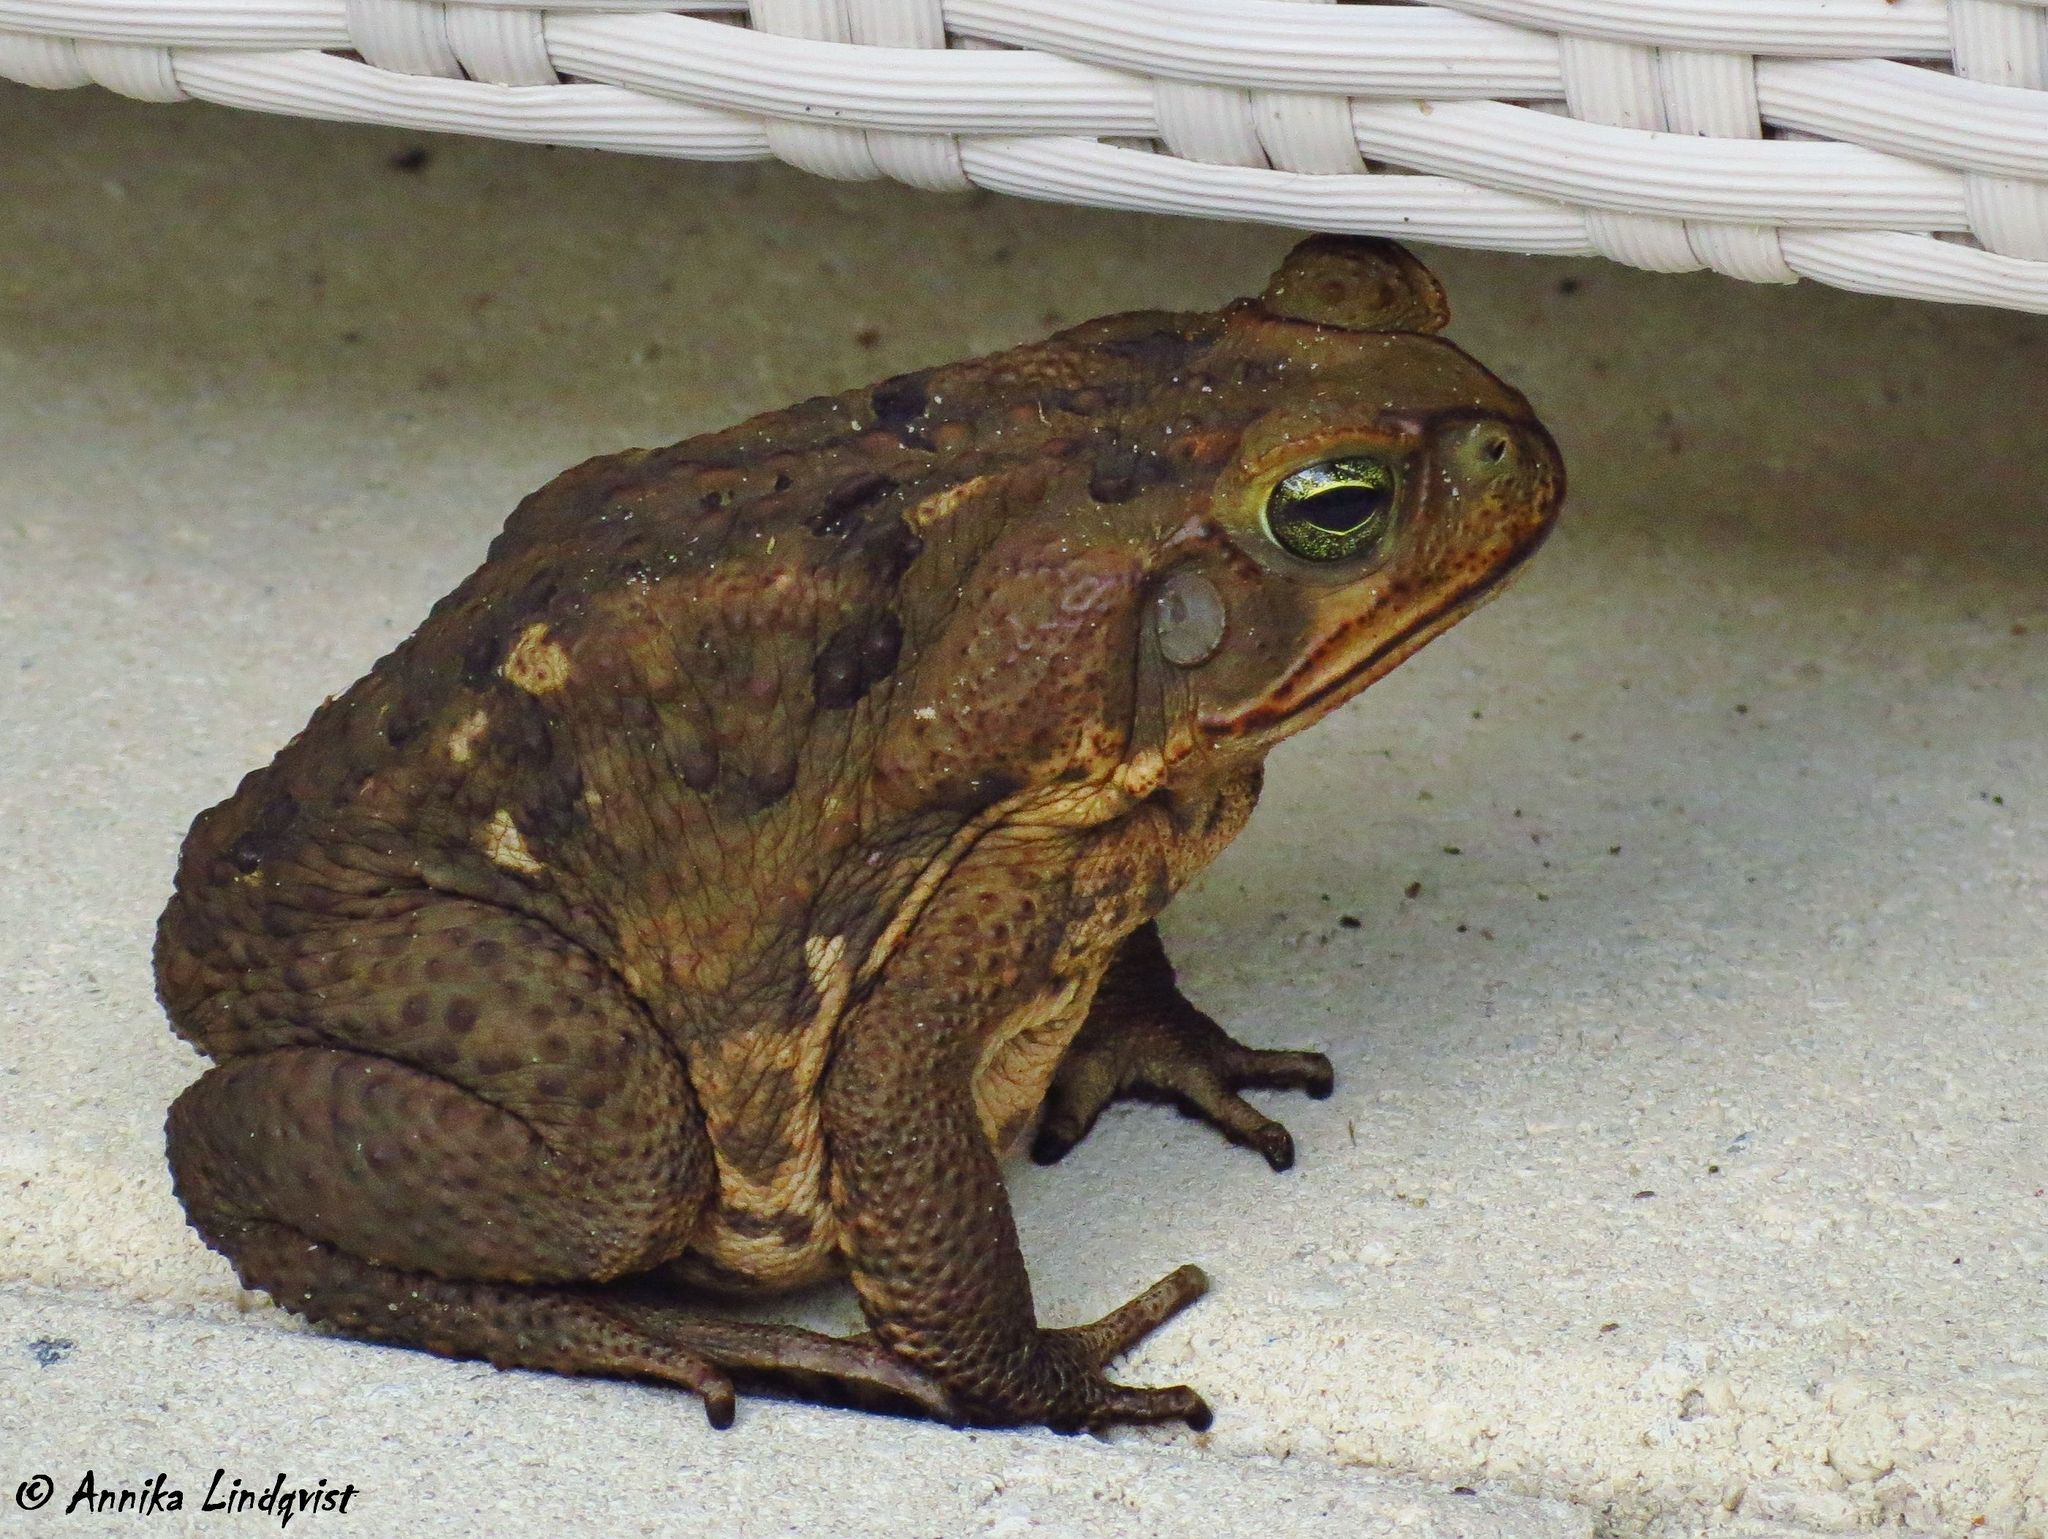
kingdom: Animalia
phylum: Chordata
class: Amphibia
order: Anura
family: Bufonidae
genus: Rhinella
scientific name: Rhinella marina
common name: Cane toad
